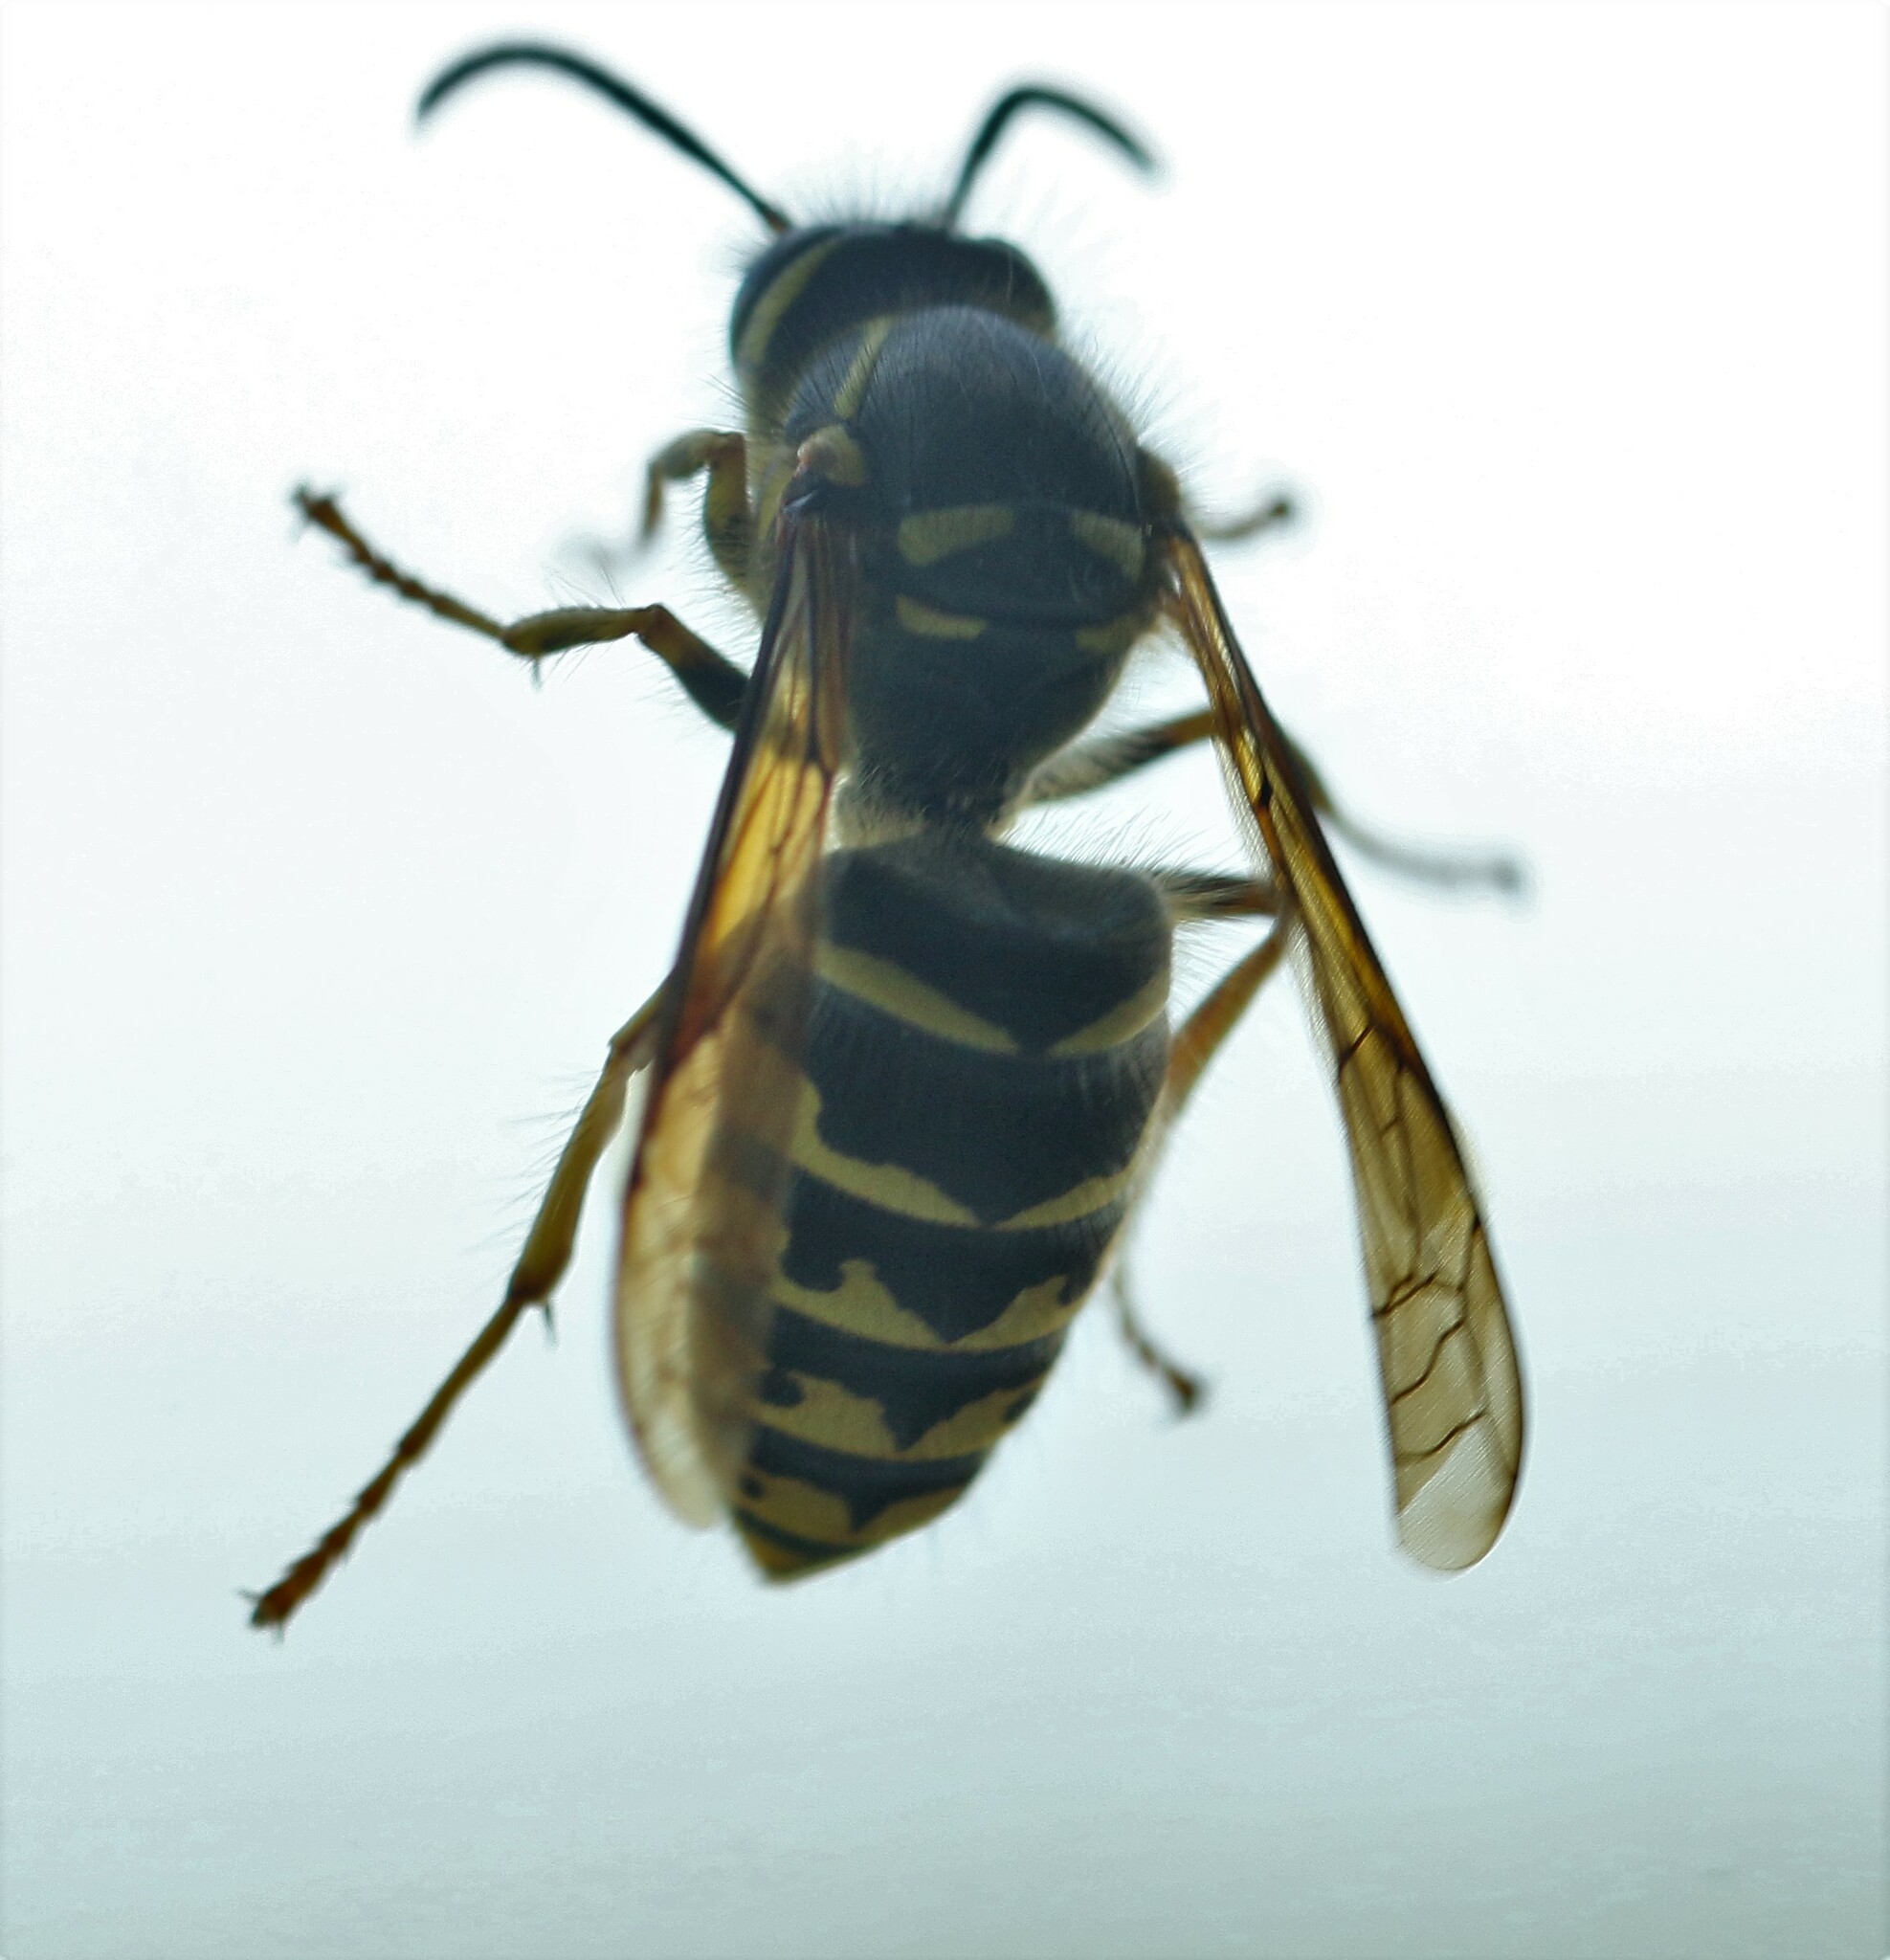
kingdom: Animalia
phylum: Arthropoda
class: Insecta
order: Hymenoptera
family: Vespidae
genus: Dolichovespula
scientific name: Dolichovespula arenaria
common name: Aerial yellowjacket
